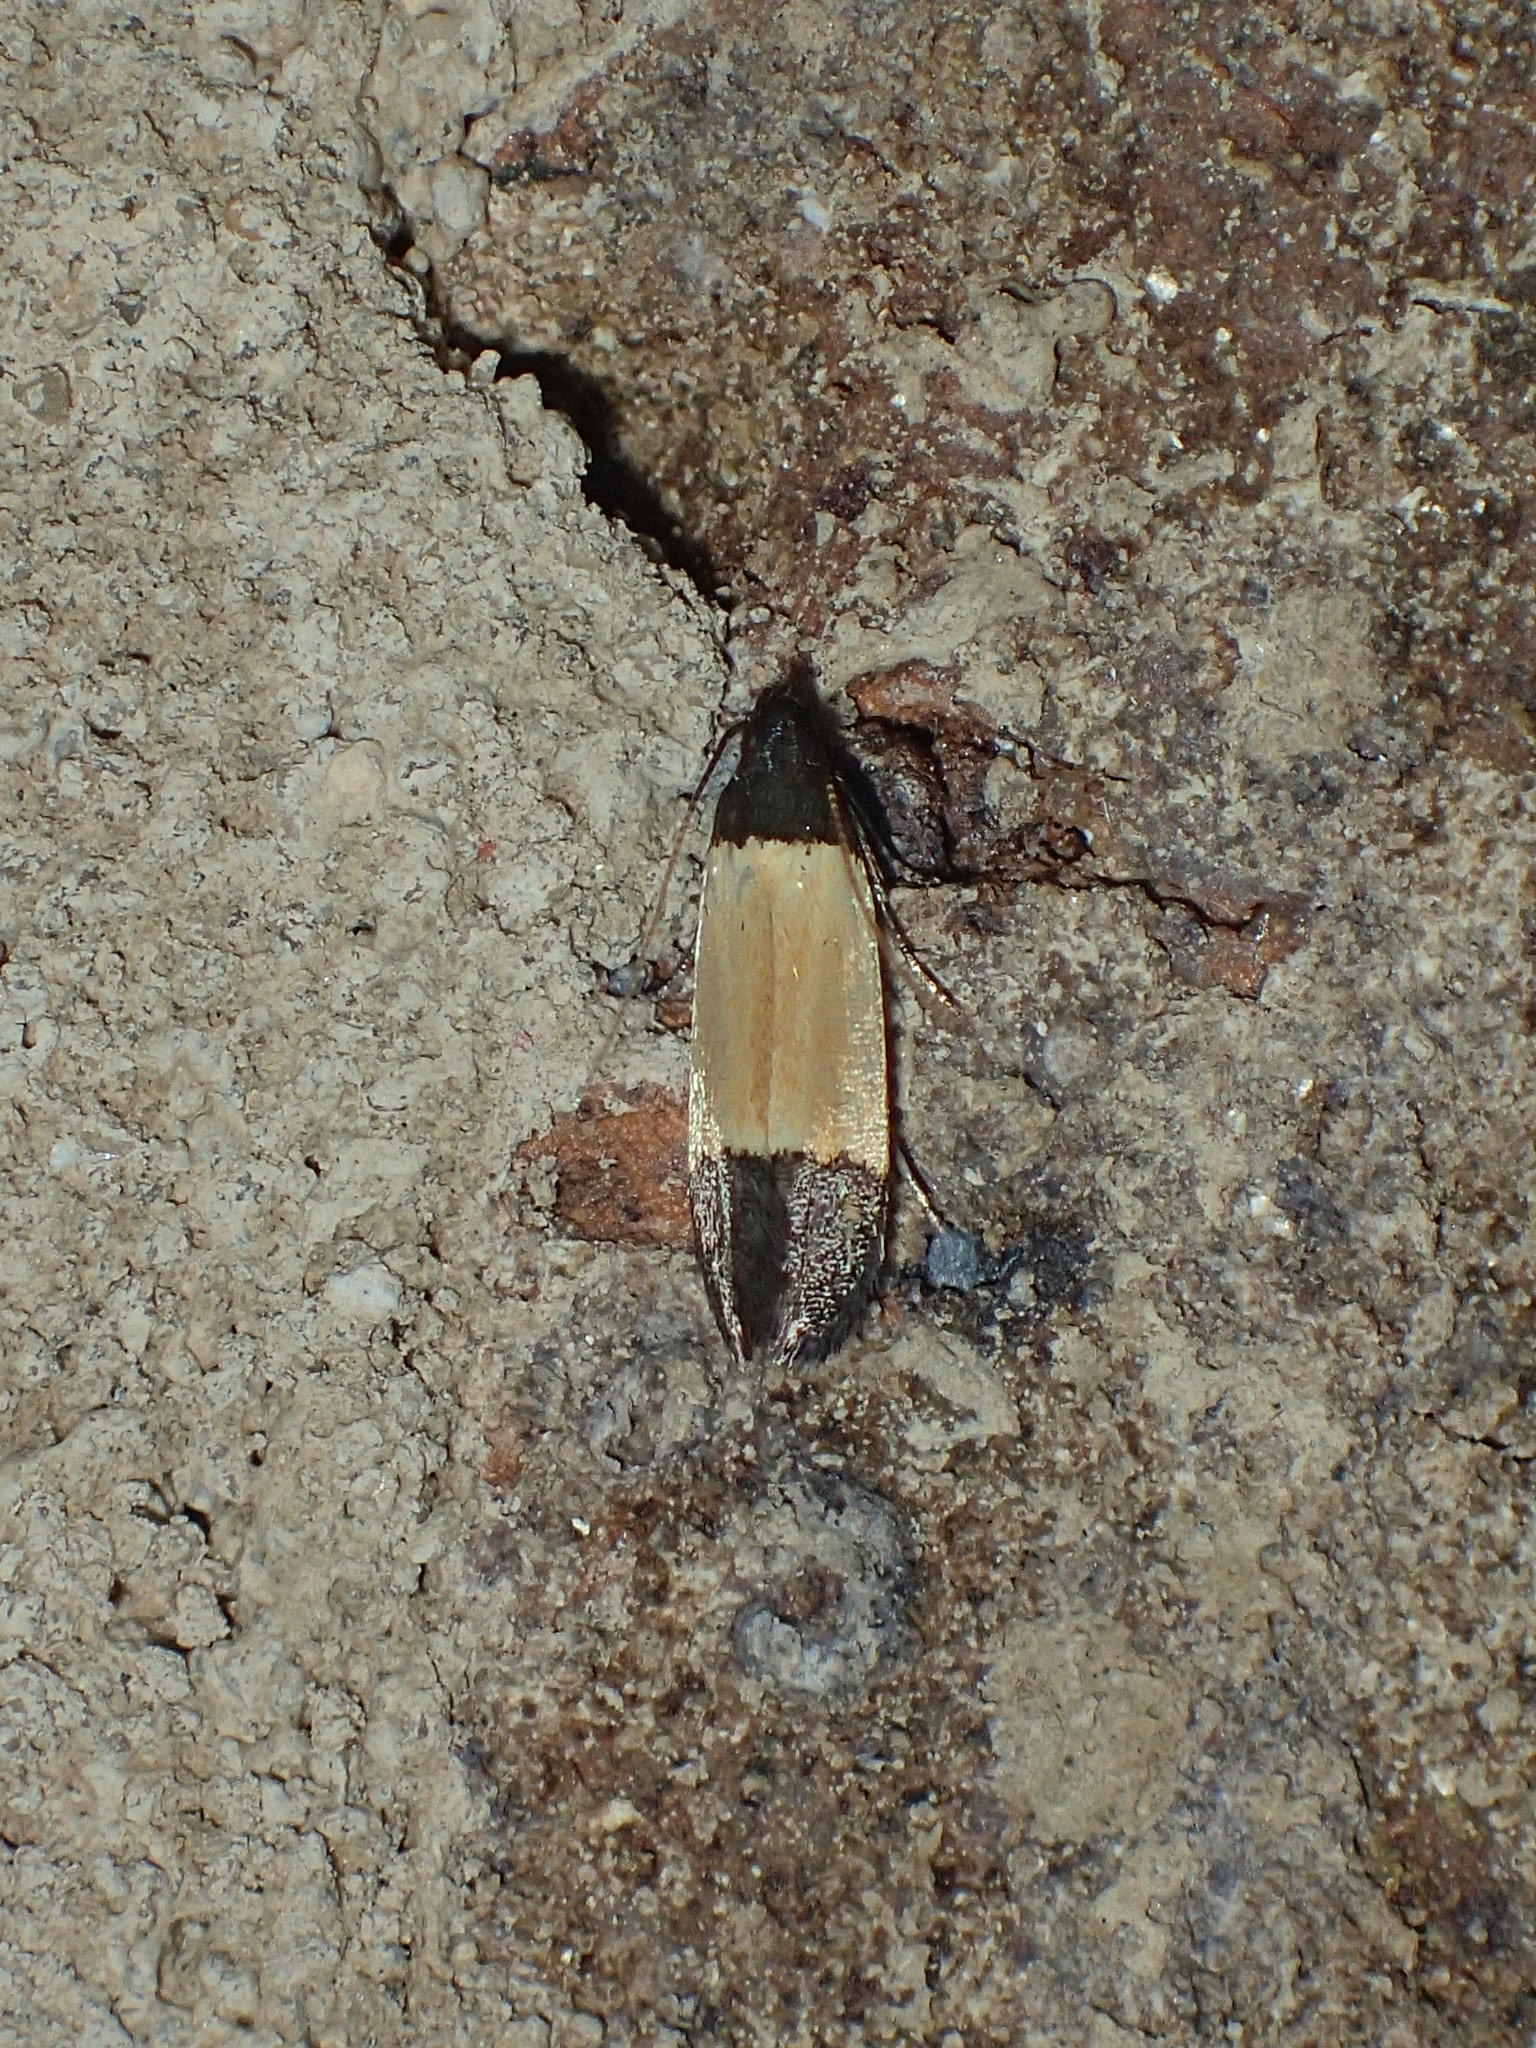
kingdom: Animalia
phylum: Arthropoda
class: Insecta
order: Lepidoptera
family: Gelechiidae
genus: Anacampsis
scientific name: Anacampsis coverdalella
